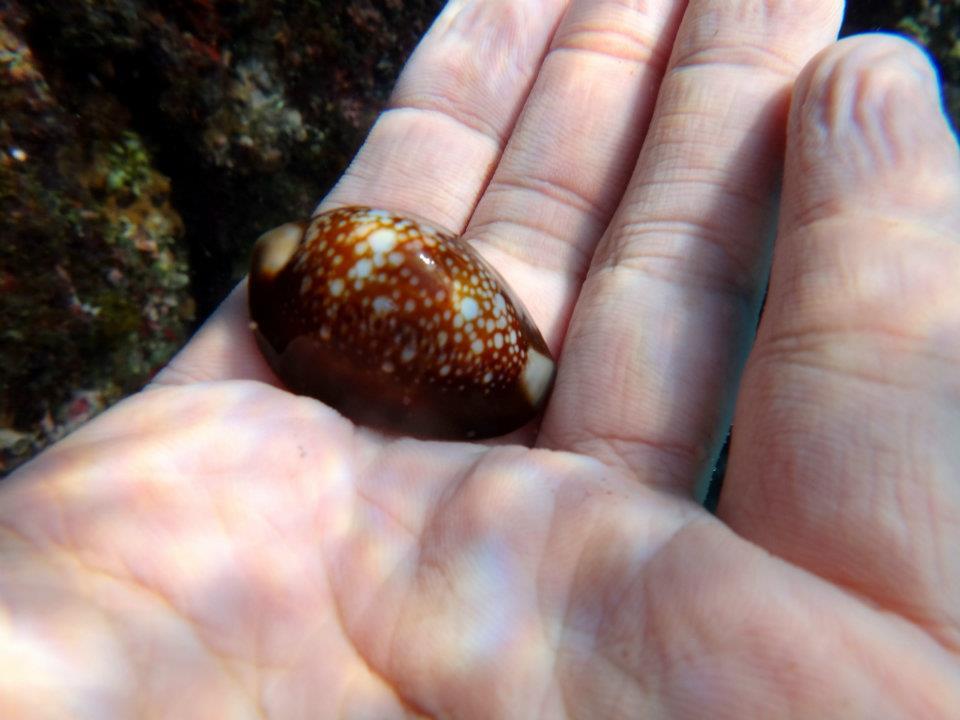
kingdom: Animalia
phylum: Mollusca
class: Gastropoda
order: Littorinimorpha
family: Cypraeidae
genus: Monetaria
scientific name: Monetaria caputserpentis
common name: Serpent's head cowrie
